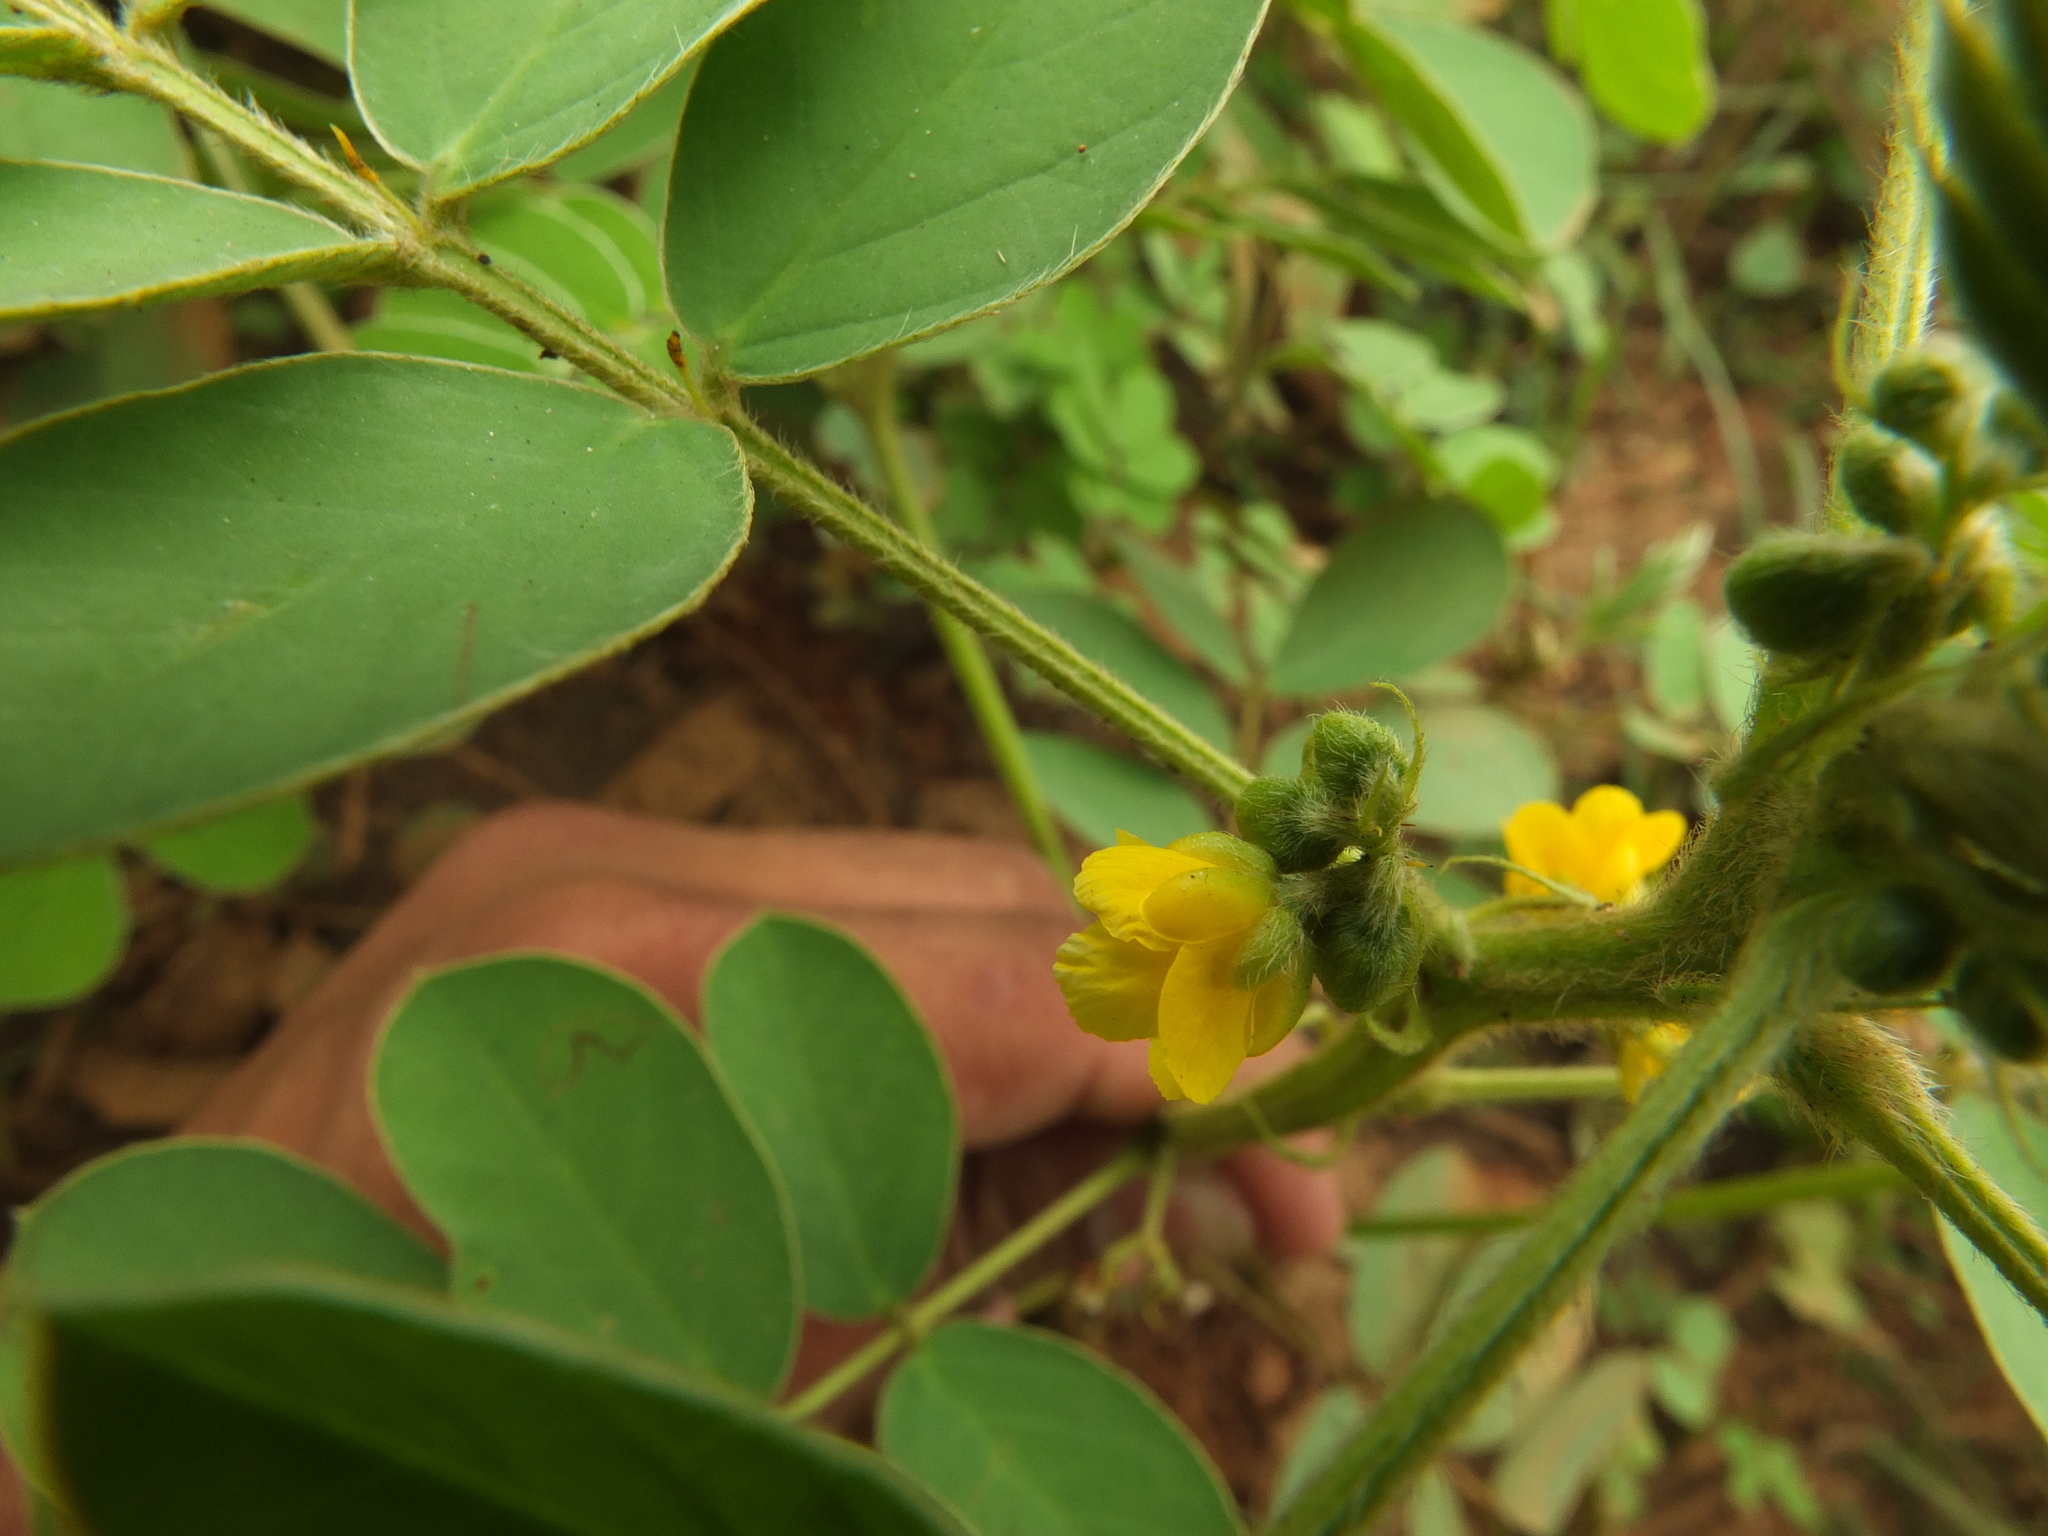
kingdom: Plantae
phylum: Tracheophyta
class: Magnoliopsida
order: Fabales
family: Fabaceae
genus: Senna
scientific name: Senna uniflora
